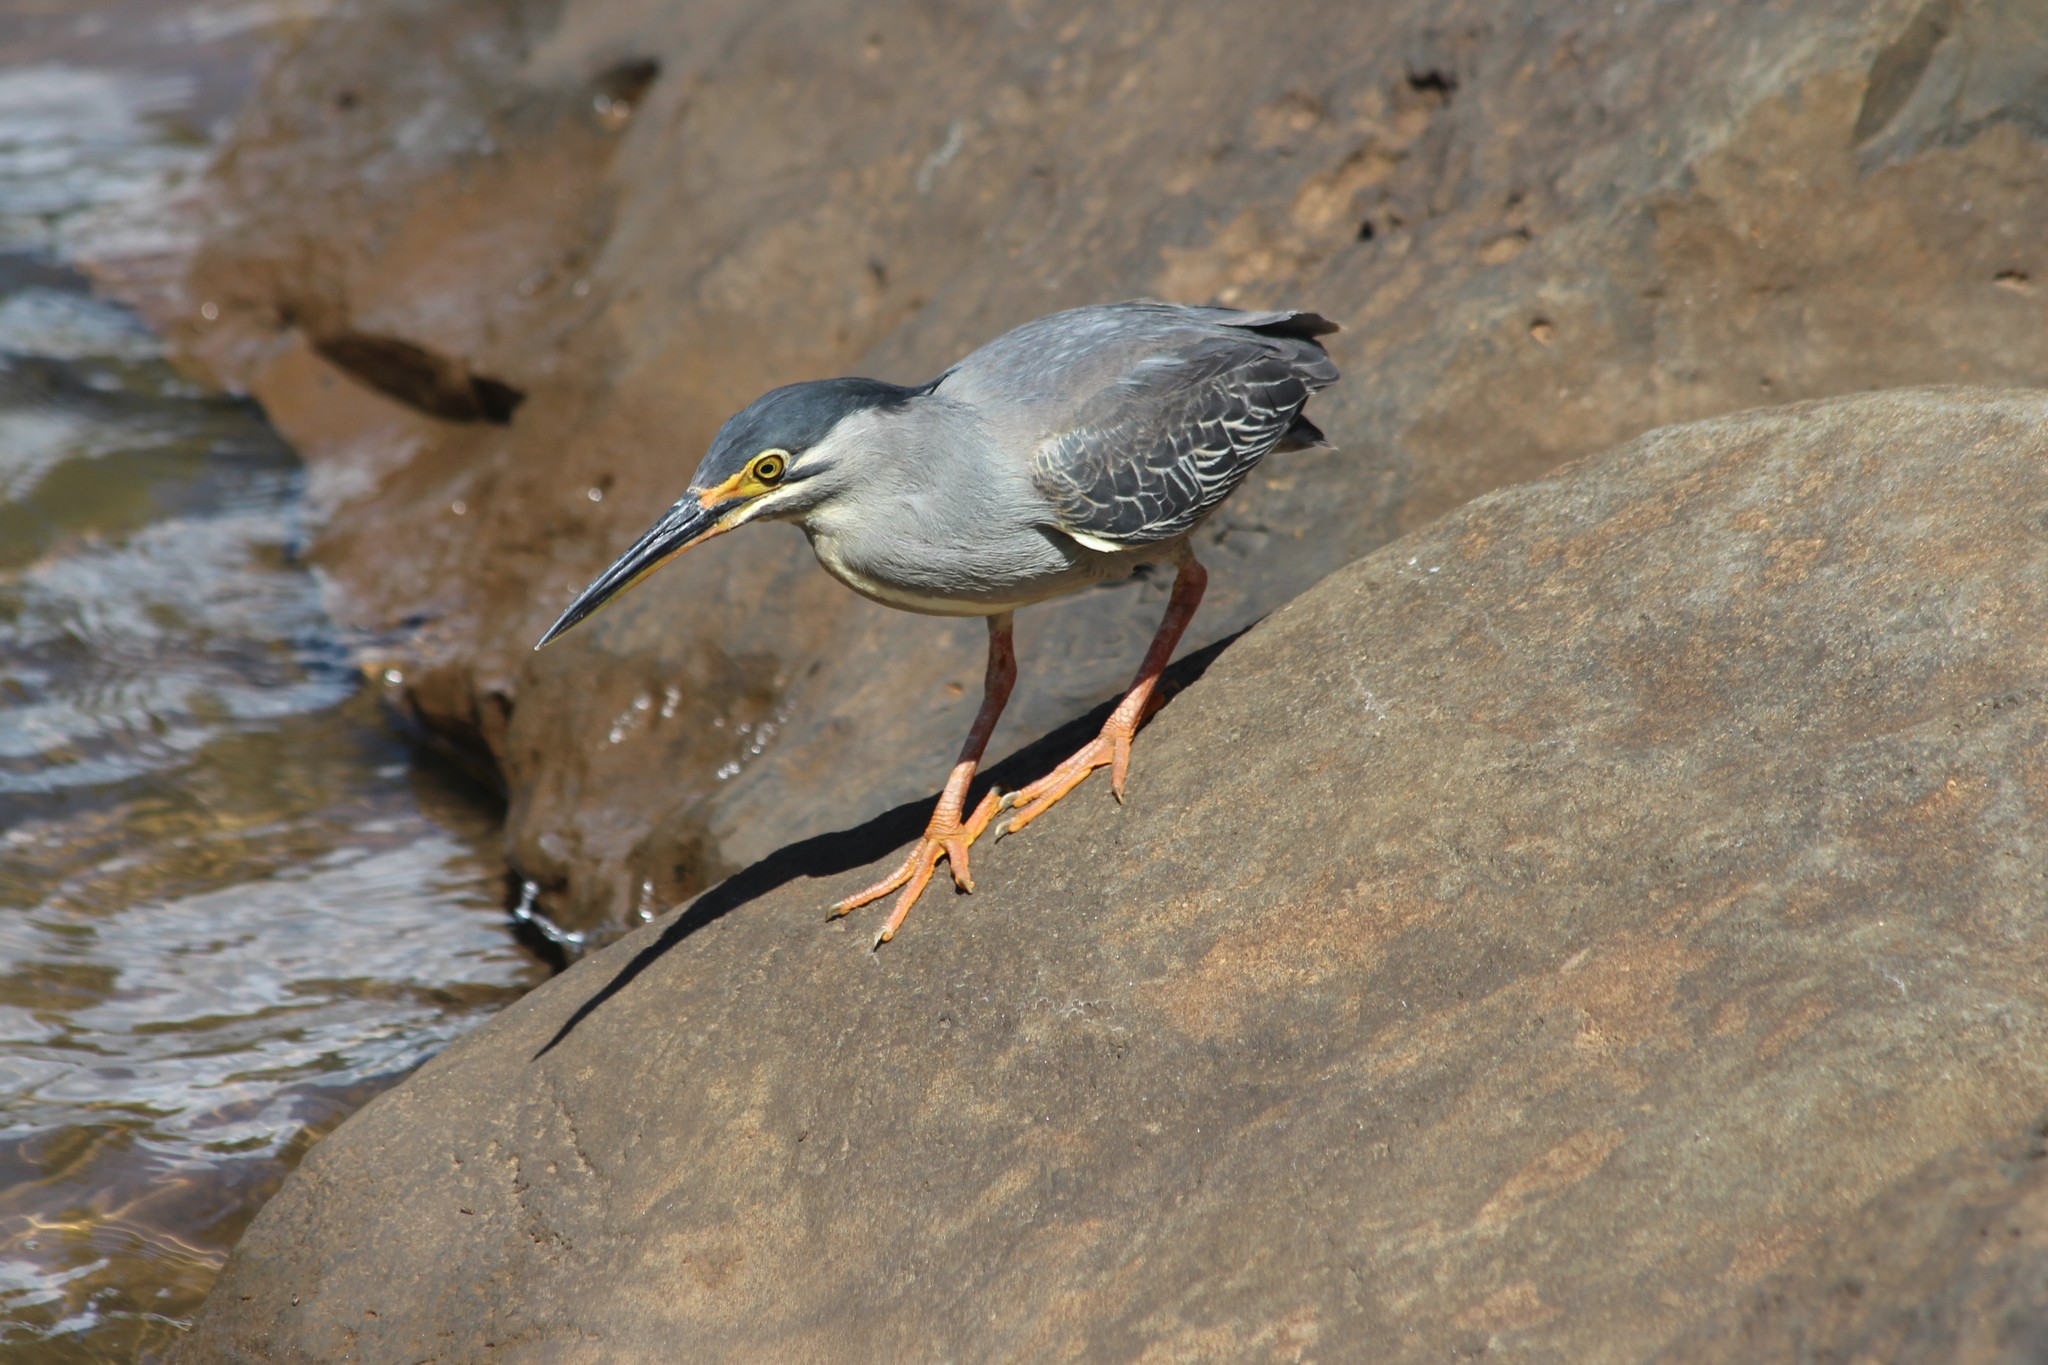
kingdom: Animalia
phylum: Chordata
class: Aves
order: Pelecaniformes
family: Ardeidae
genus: Butorides
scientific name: Butorides striata
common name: Striated heron
